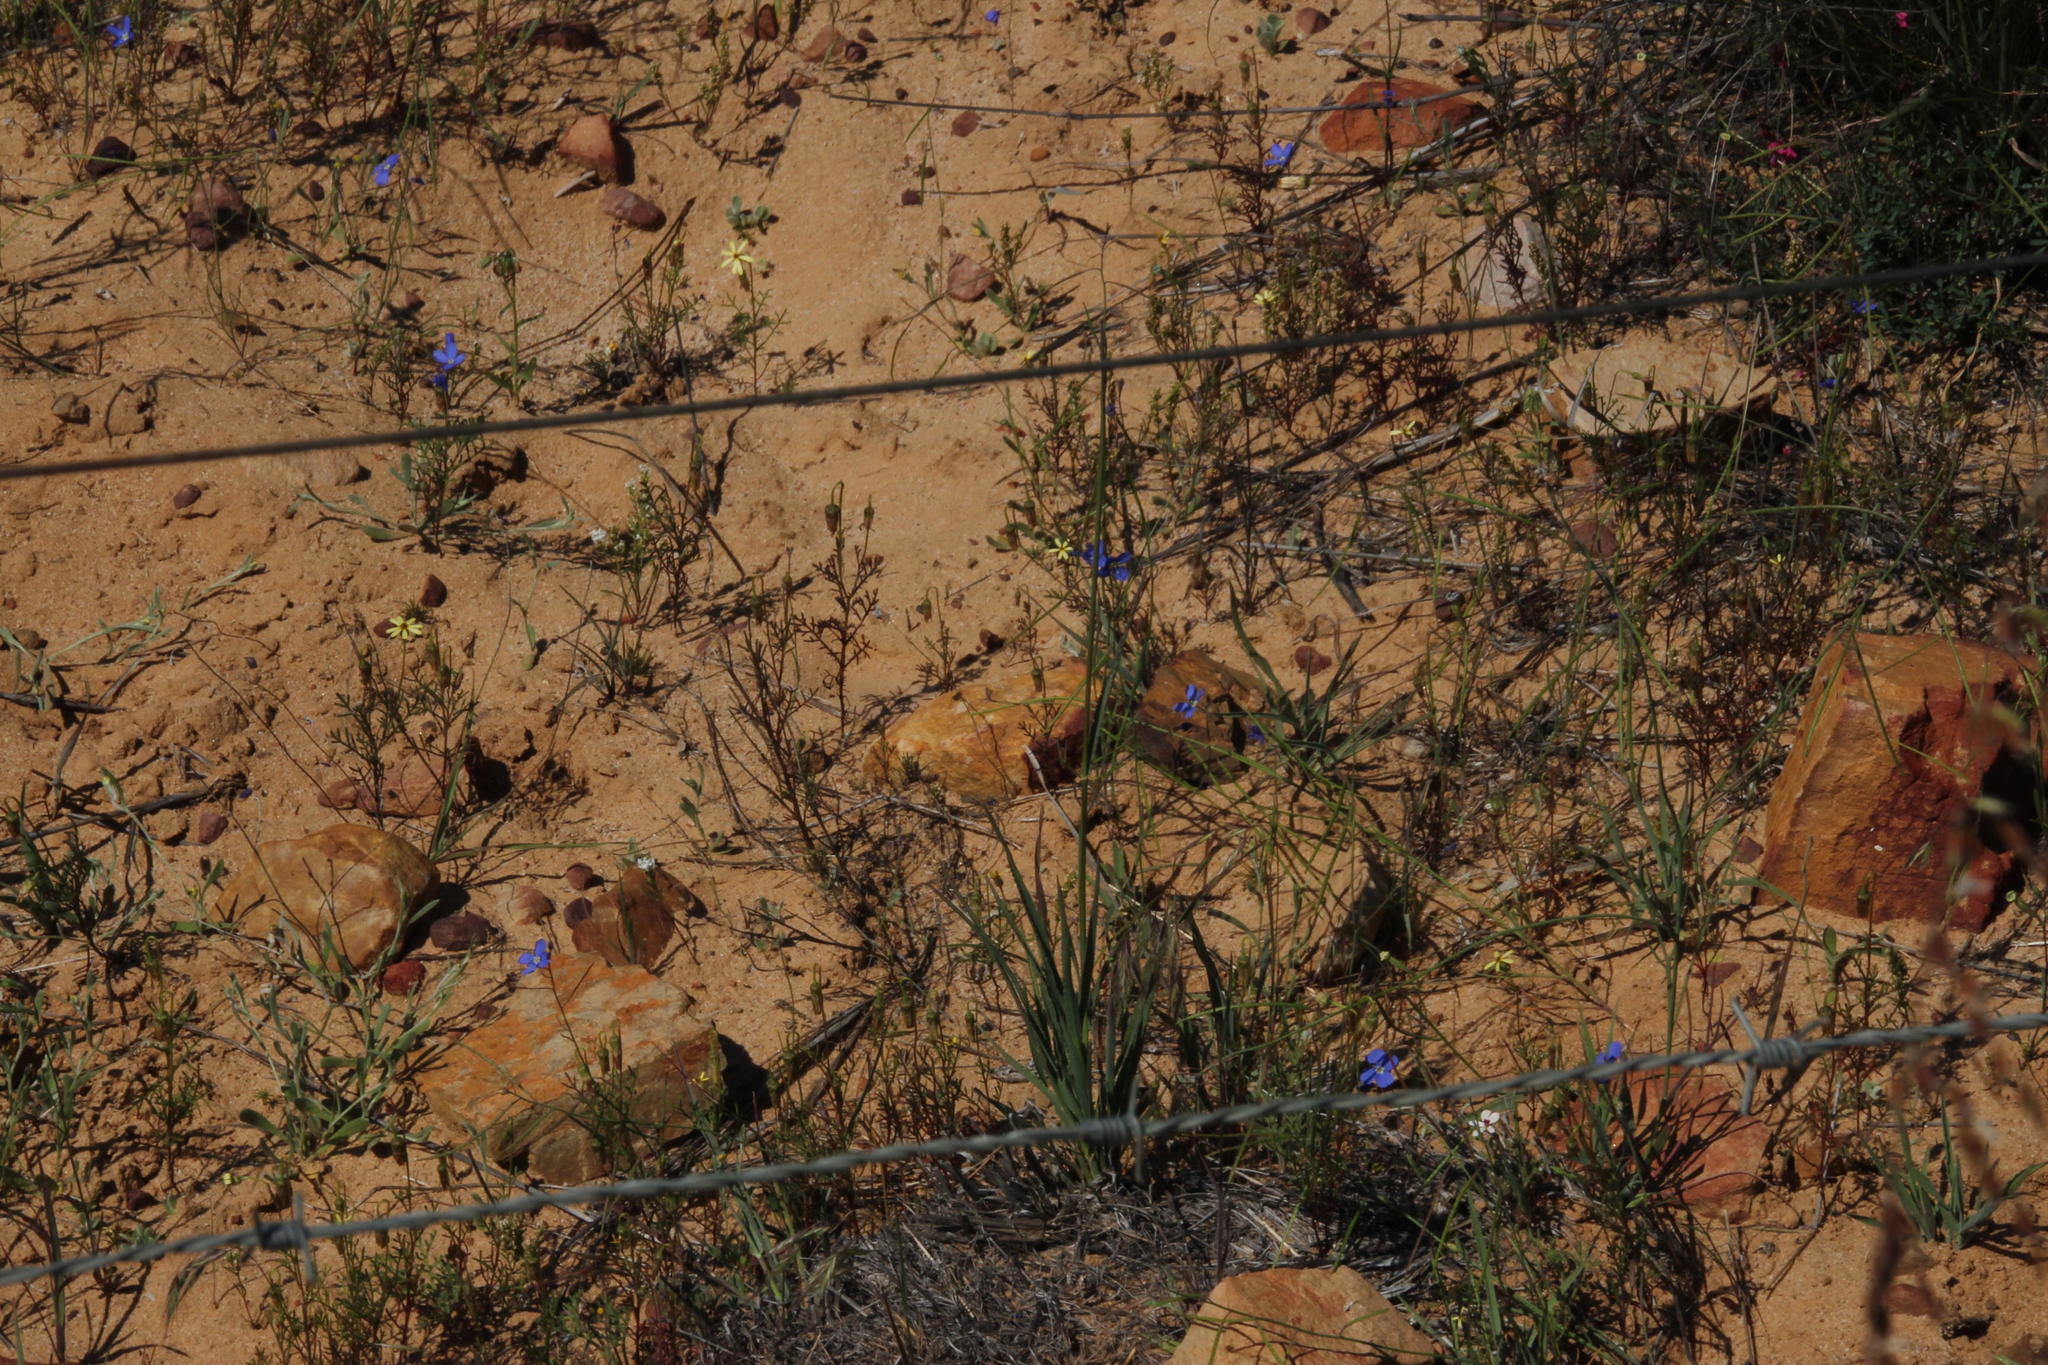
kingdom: Plantae
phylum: Tracheophyta
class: Magnoliopsida
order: Brassicales
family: Brassicaceae
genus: Heliophila
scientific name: Heliophila arenaria
